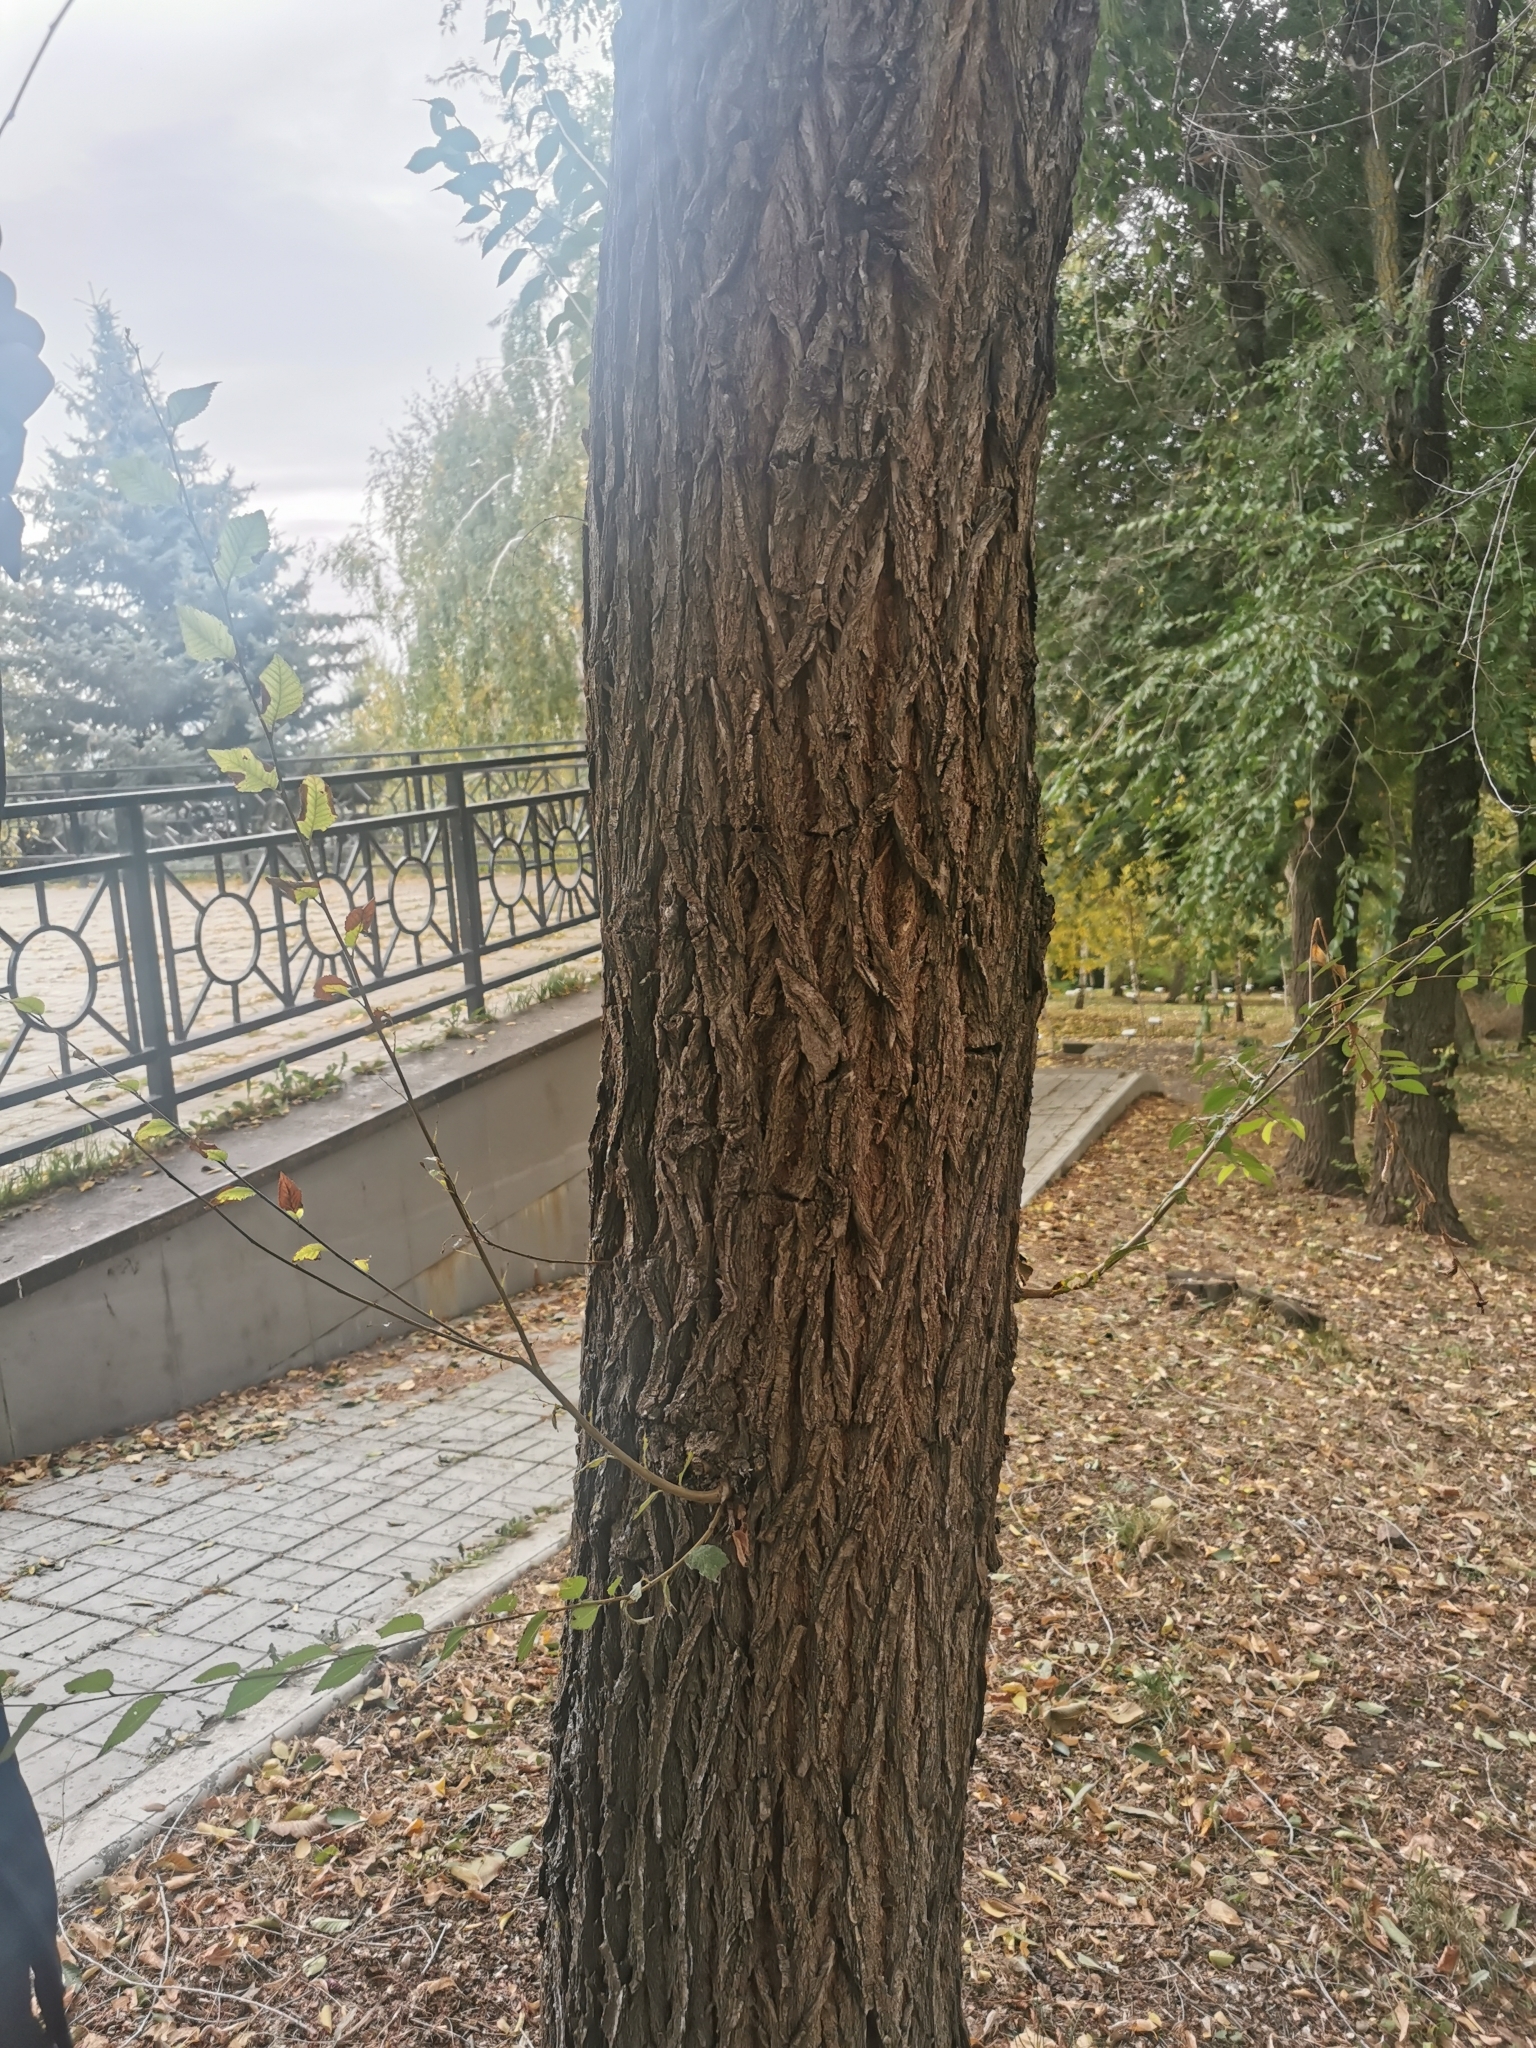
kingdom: Plantae
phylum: Tracheophyta
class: Magnoliopsida
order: Rosales
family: Ulmaceae
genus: Ulmus
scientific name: Ulmus pumila
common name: Siberian elm
